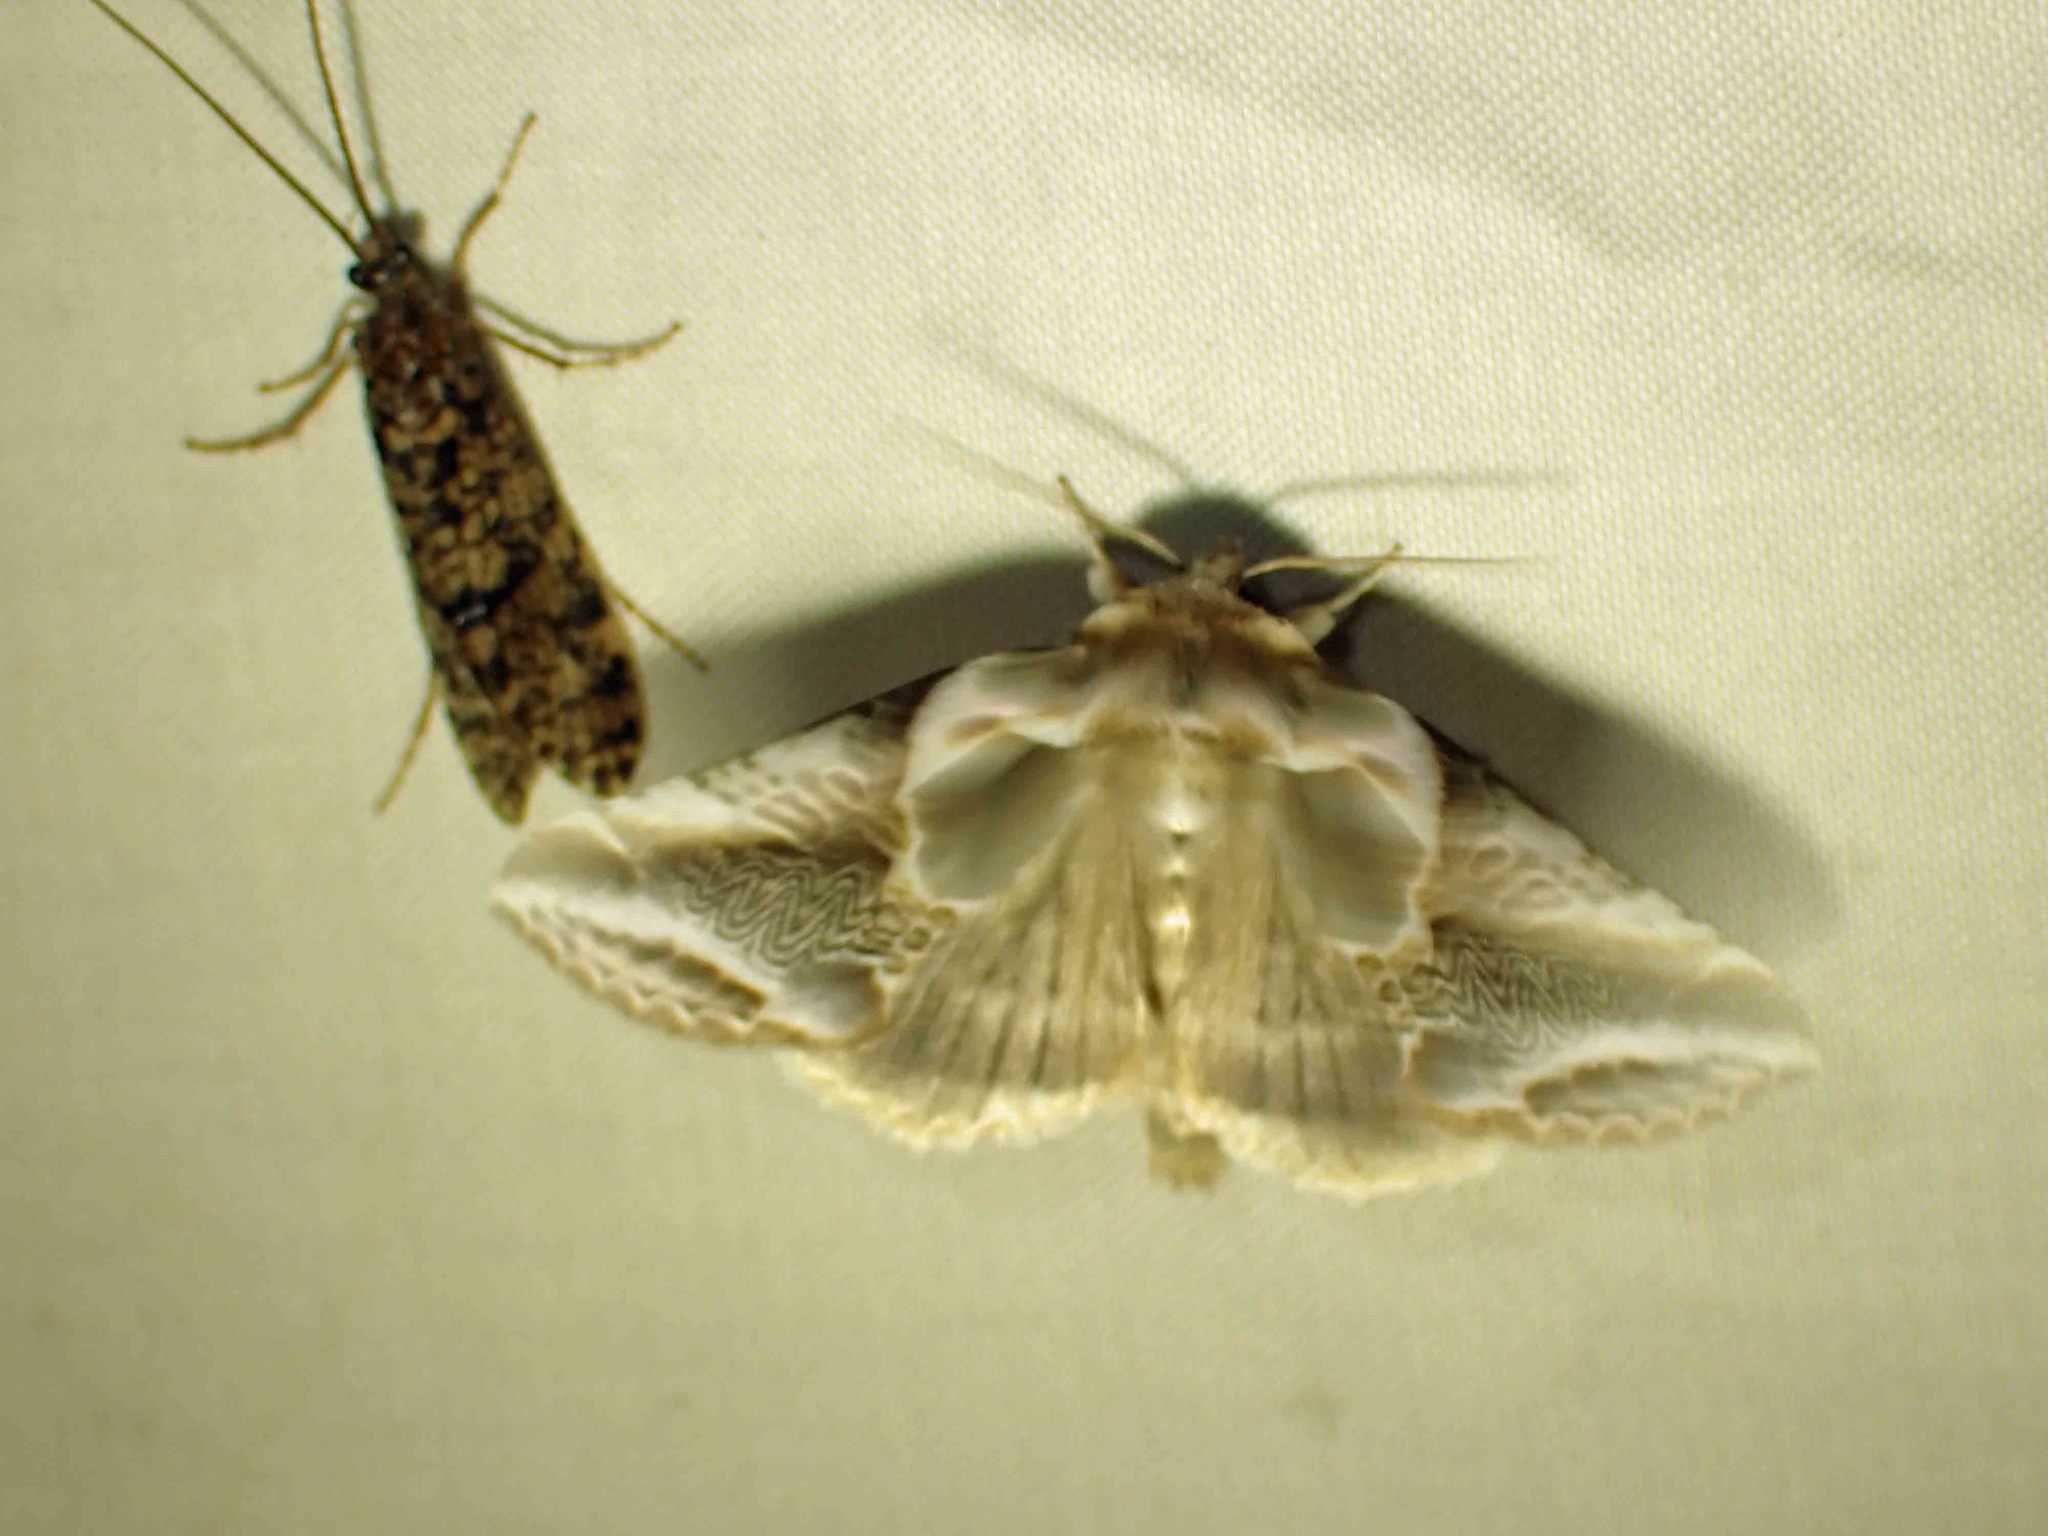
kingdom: Animalia
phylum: Arthropoda
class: Insecta
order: Lepidoptera
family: Drepanidae
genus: Habrosyne
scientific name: Habrosyne scripta
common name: Lettered habrosyne moth
